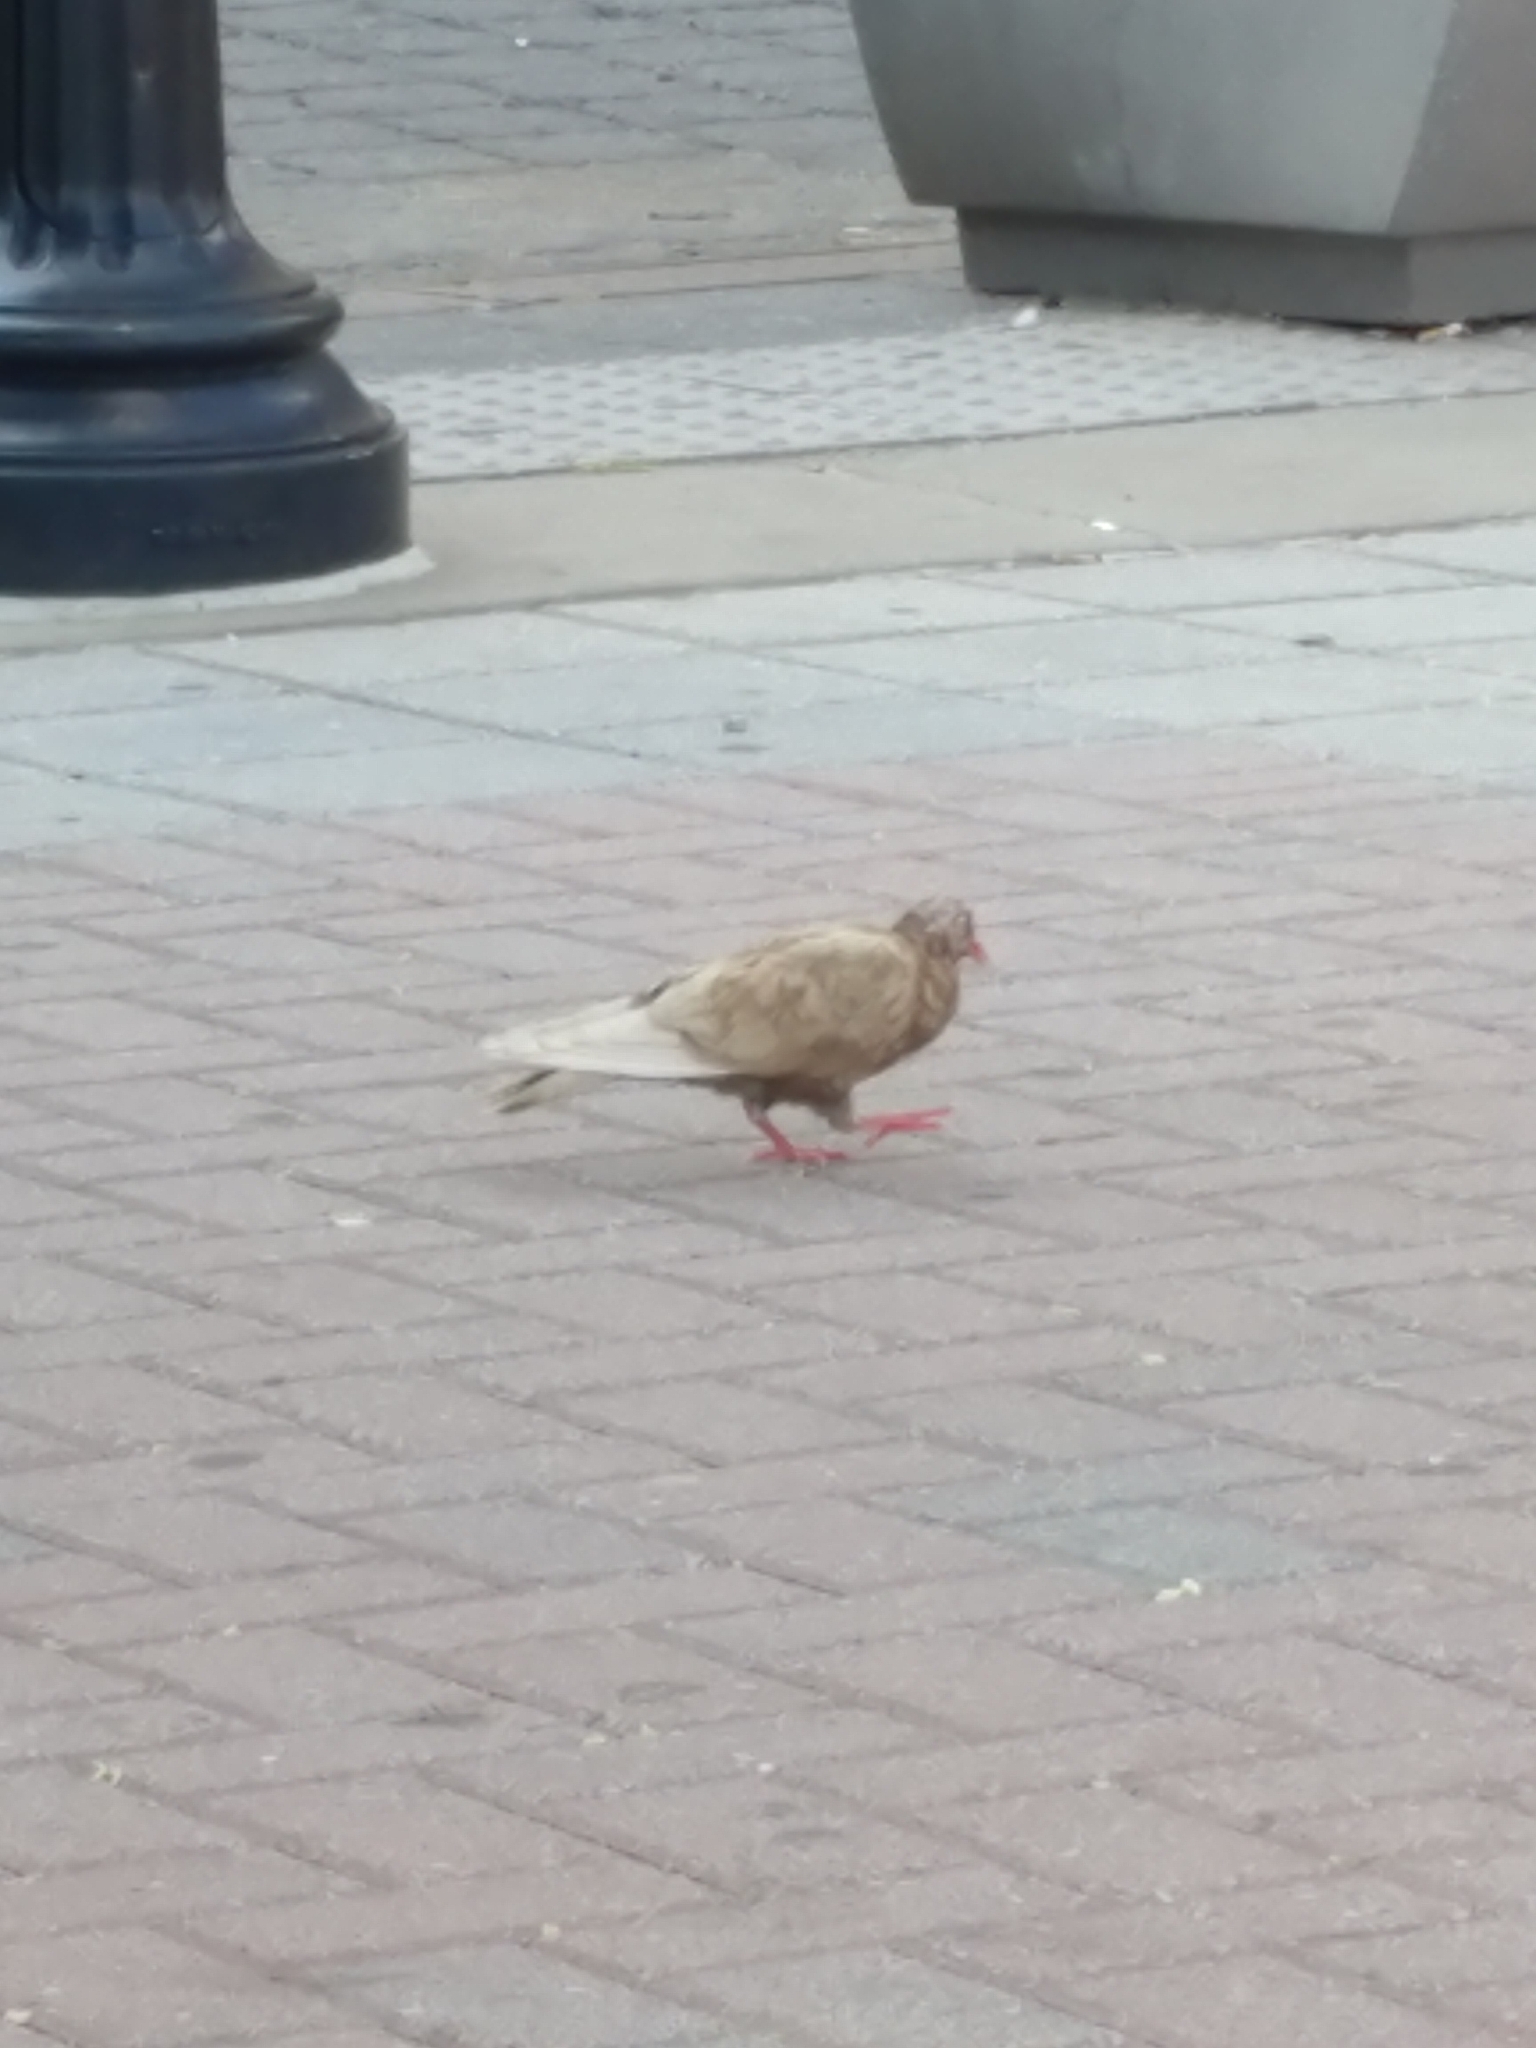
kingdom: Animalia
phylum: Chordata
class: Aves
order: Columbiformes
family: Columbidae
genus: Columba
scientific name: Columba livia
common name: Rock pigeon
